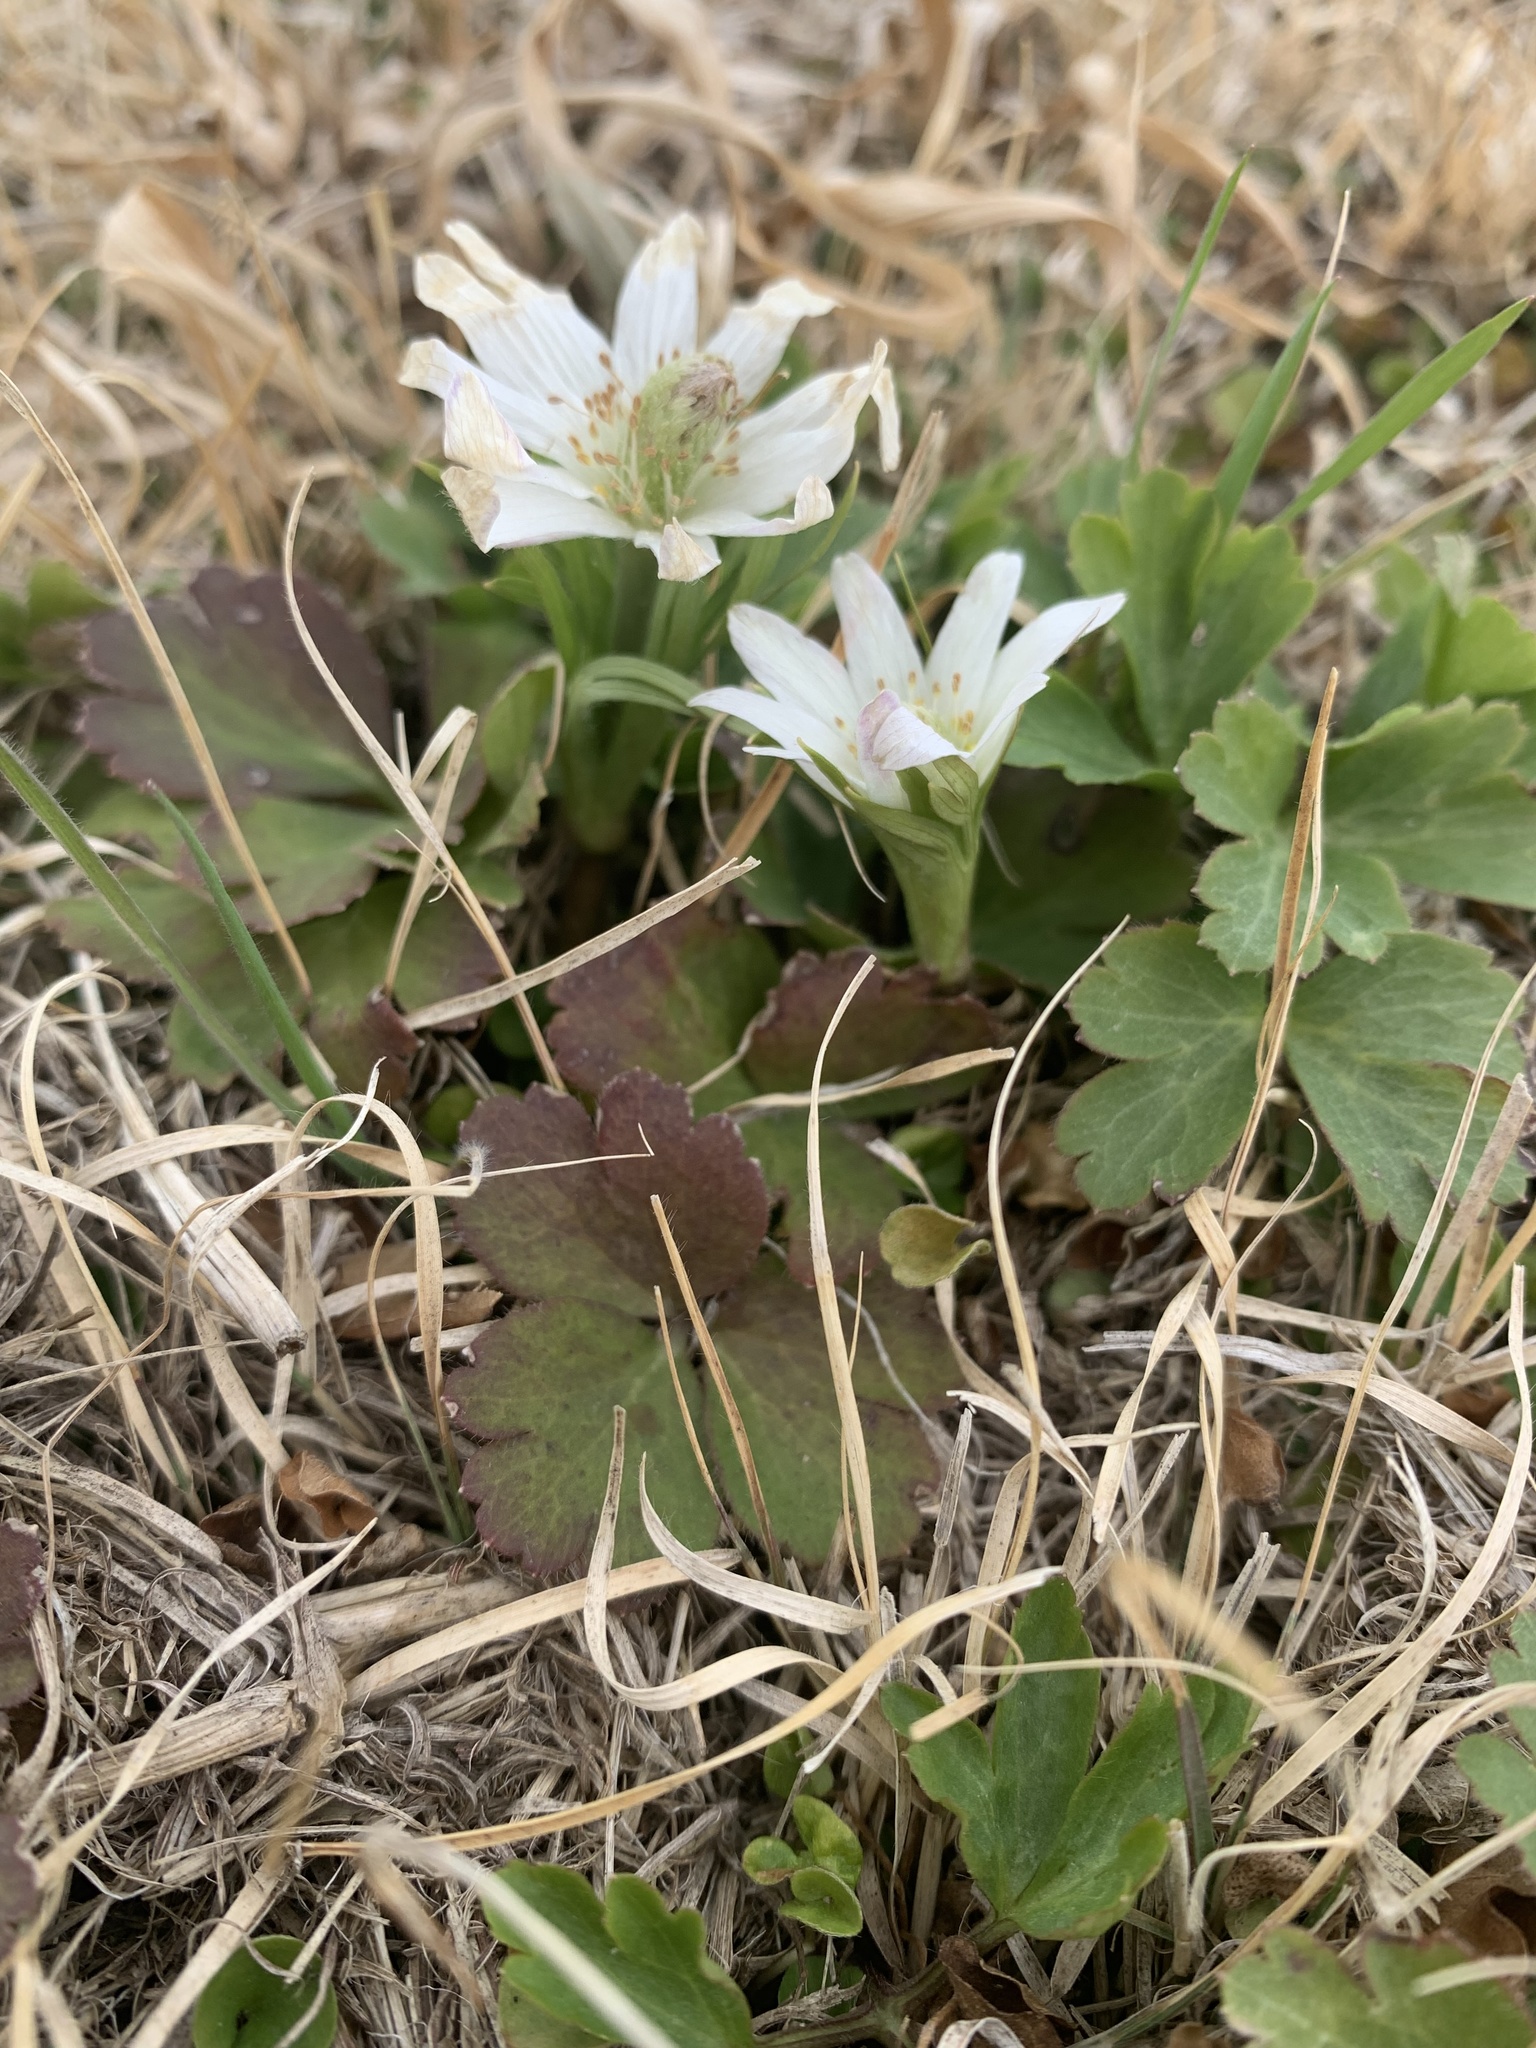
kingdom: Plantae
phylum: Tracheophyta
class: Magnoliopsida
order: Ranunculales
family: Ranunculaceae
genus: Anemone
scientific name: Anemone berlandieri
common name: Ten-petal anemone
